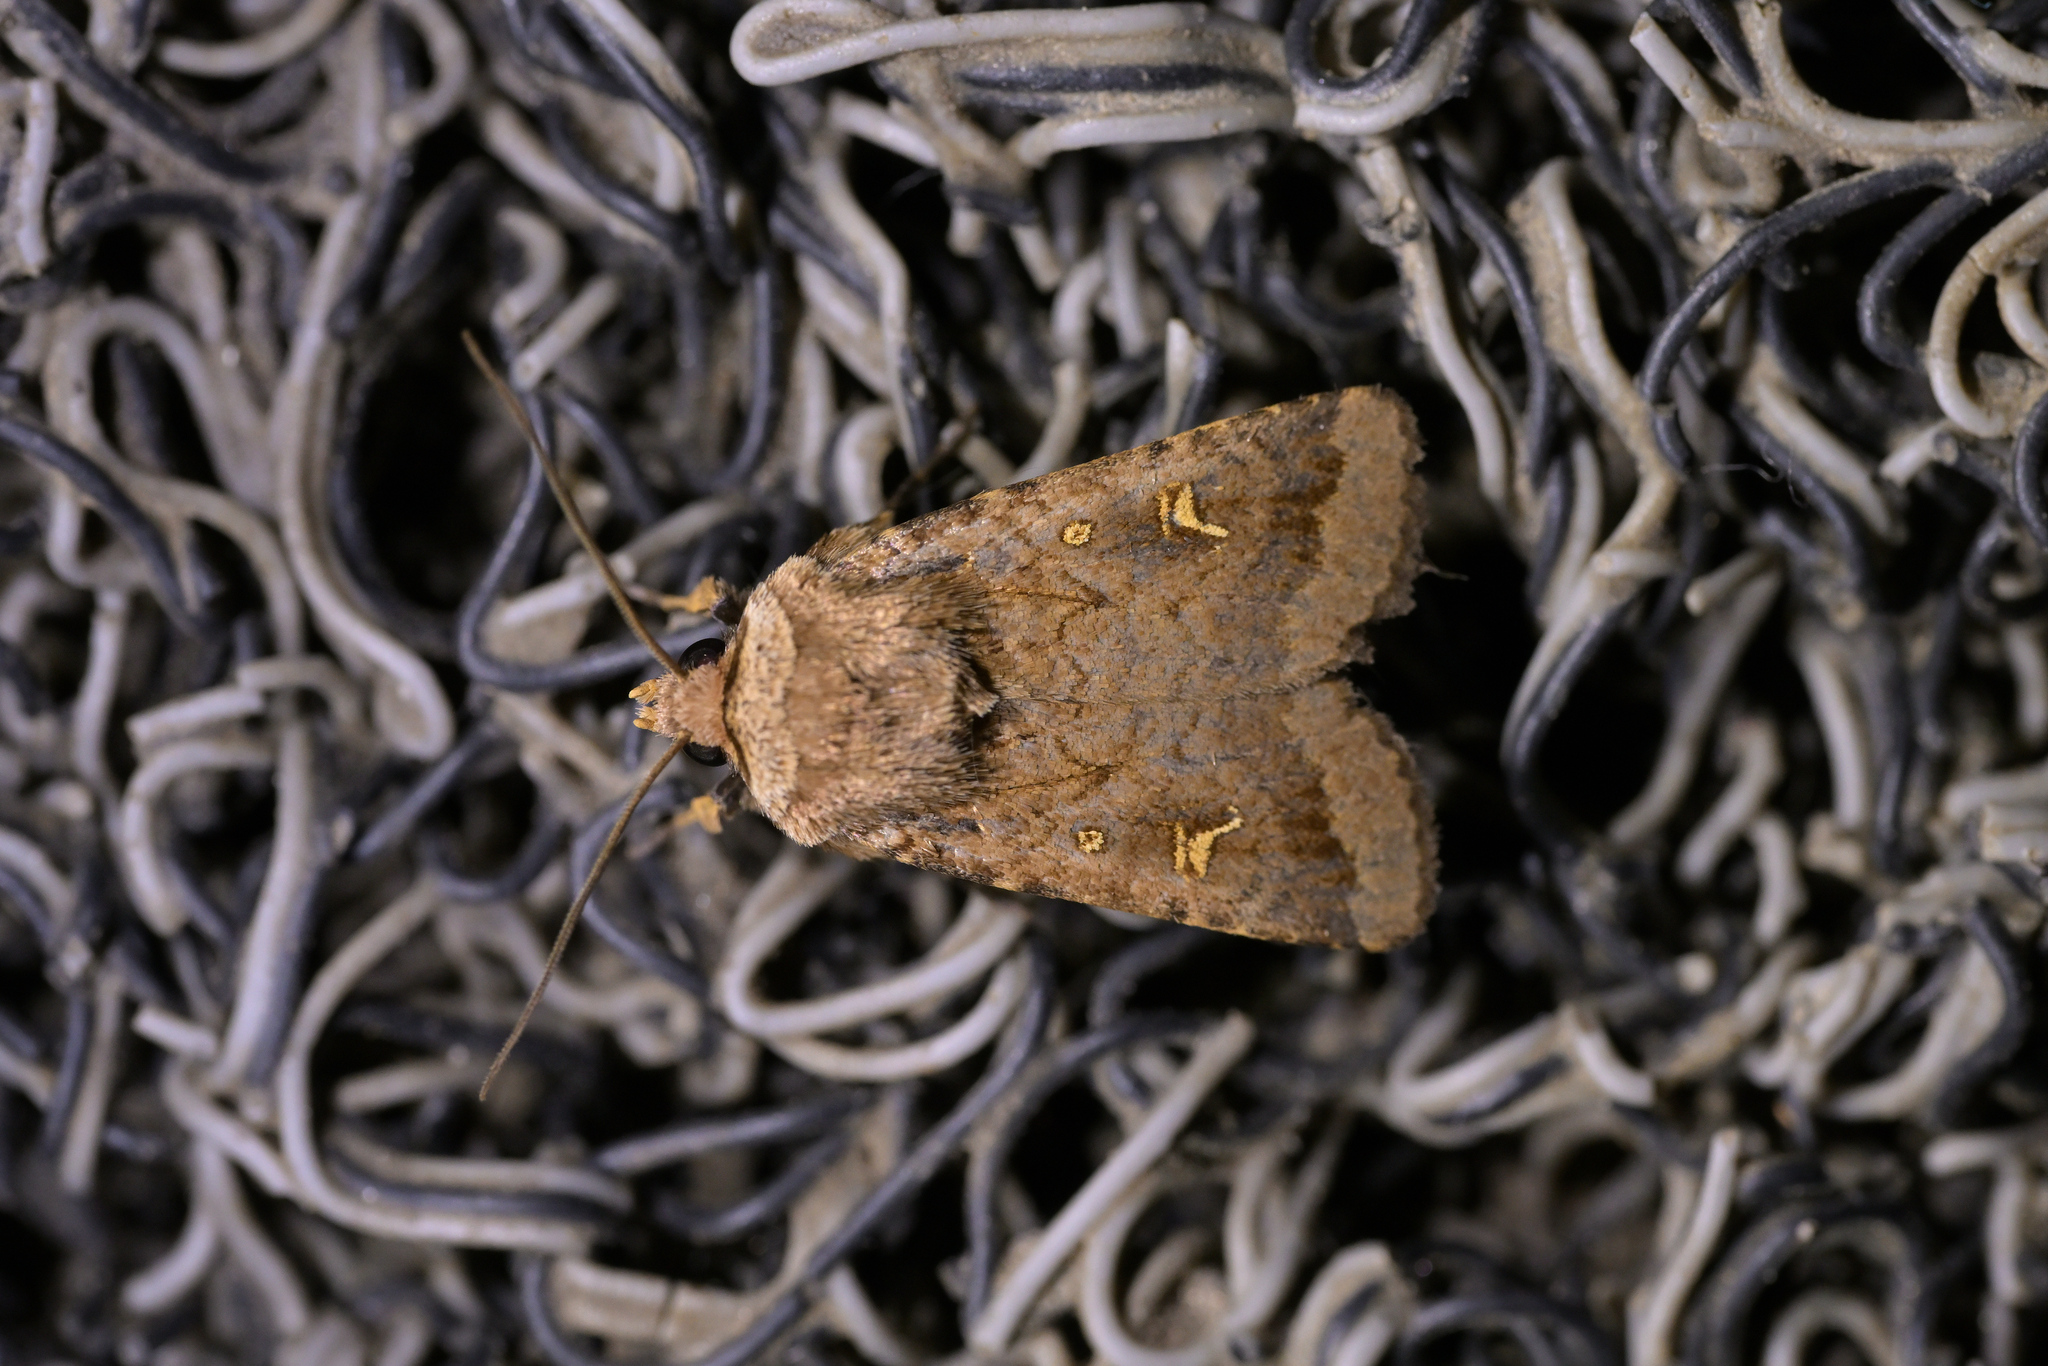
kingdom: Animalia
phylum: Arthropoda
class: Insecta
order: Lepidoptera
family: Noctuidae
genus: Proteuxoa
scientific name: Proteuxoa tetronycha
